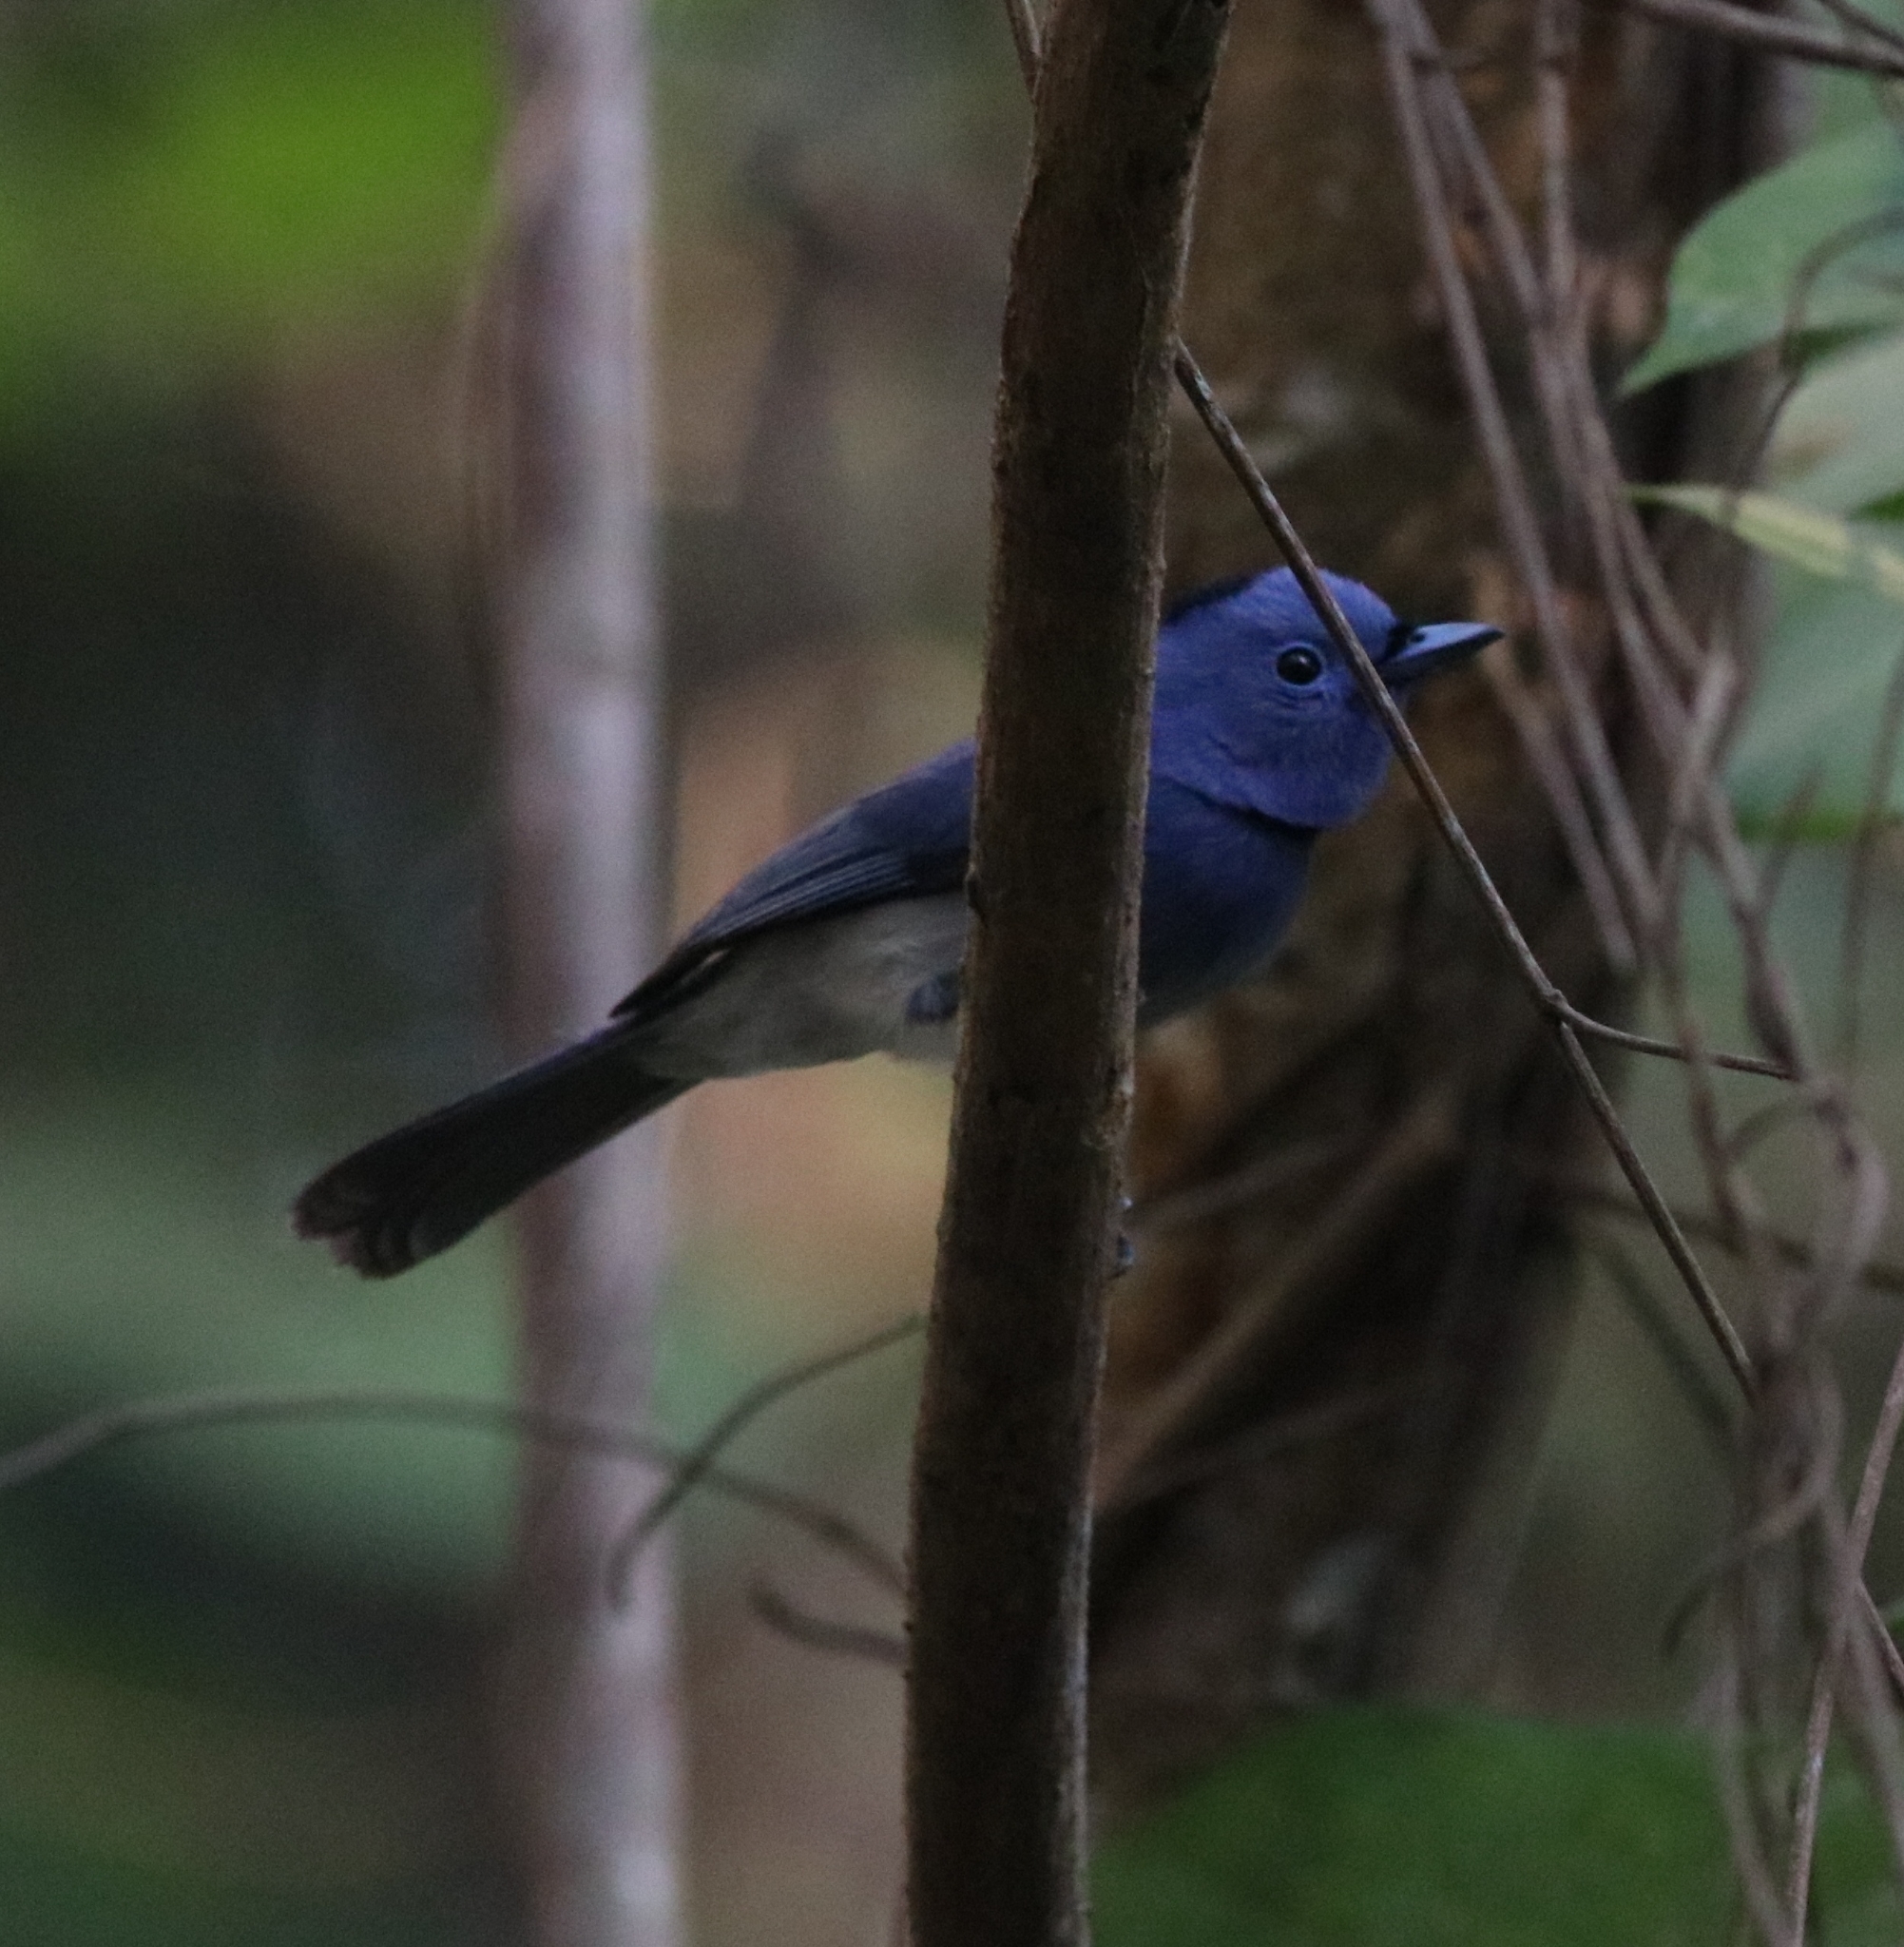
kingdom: Animalia
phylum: Chordata
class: Aves
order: Passeriformes
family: Monarchidae
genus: Hypothymis
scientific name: Hypothymis azurea
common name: Black-naped monarch
